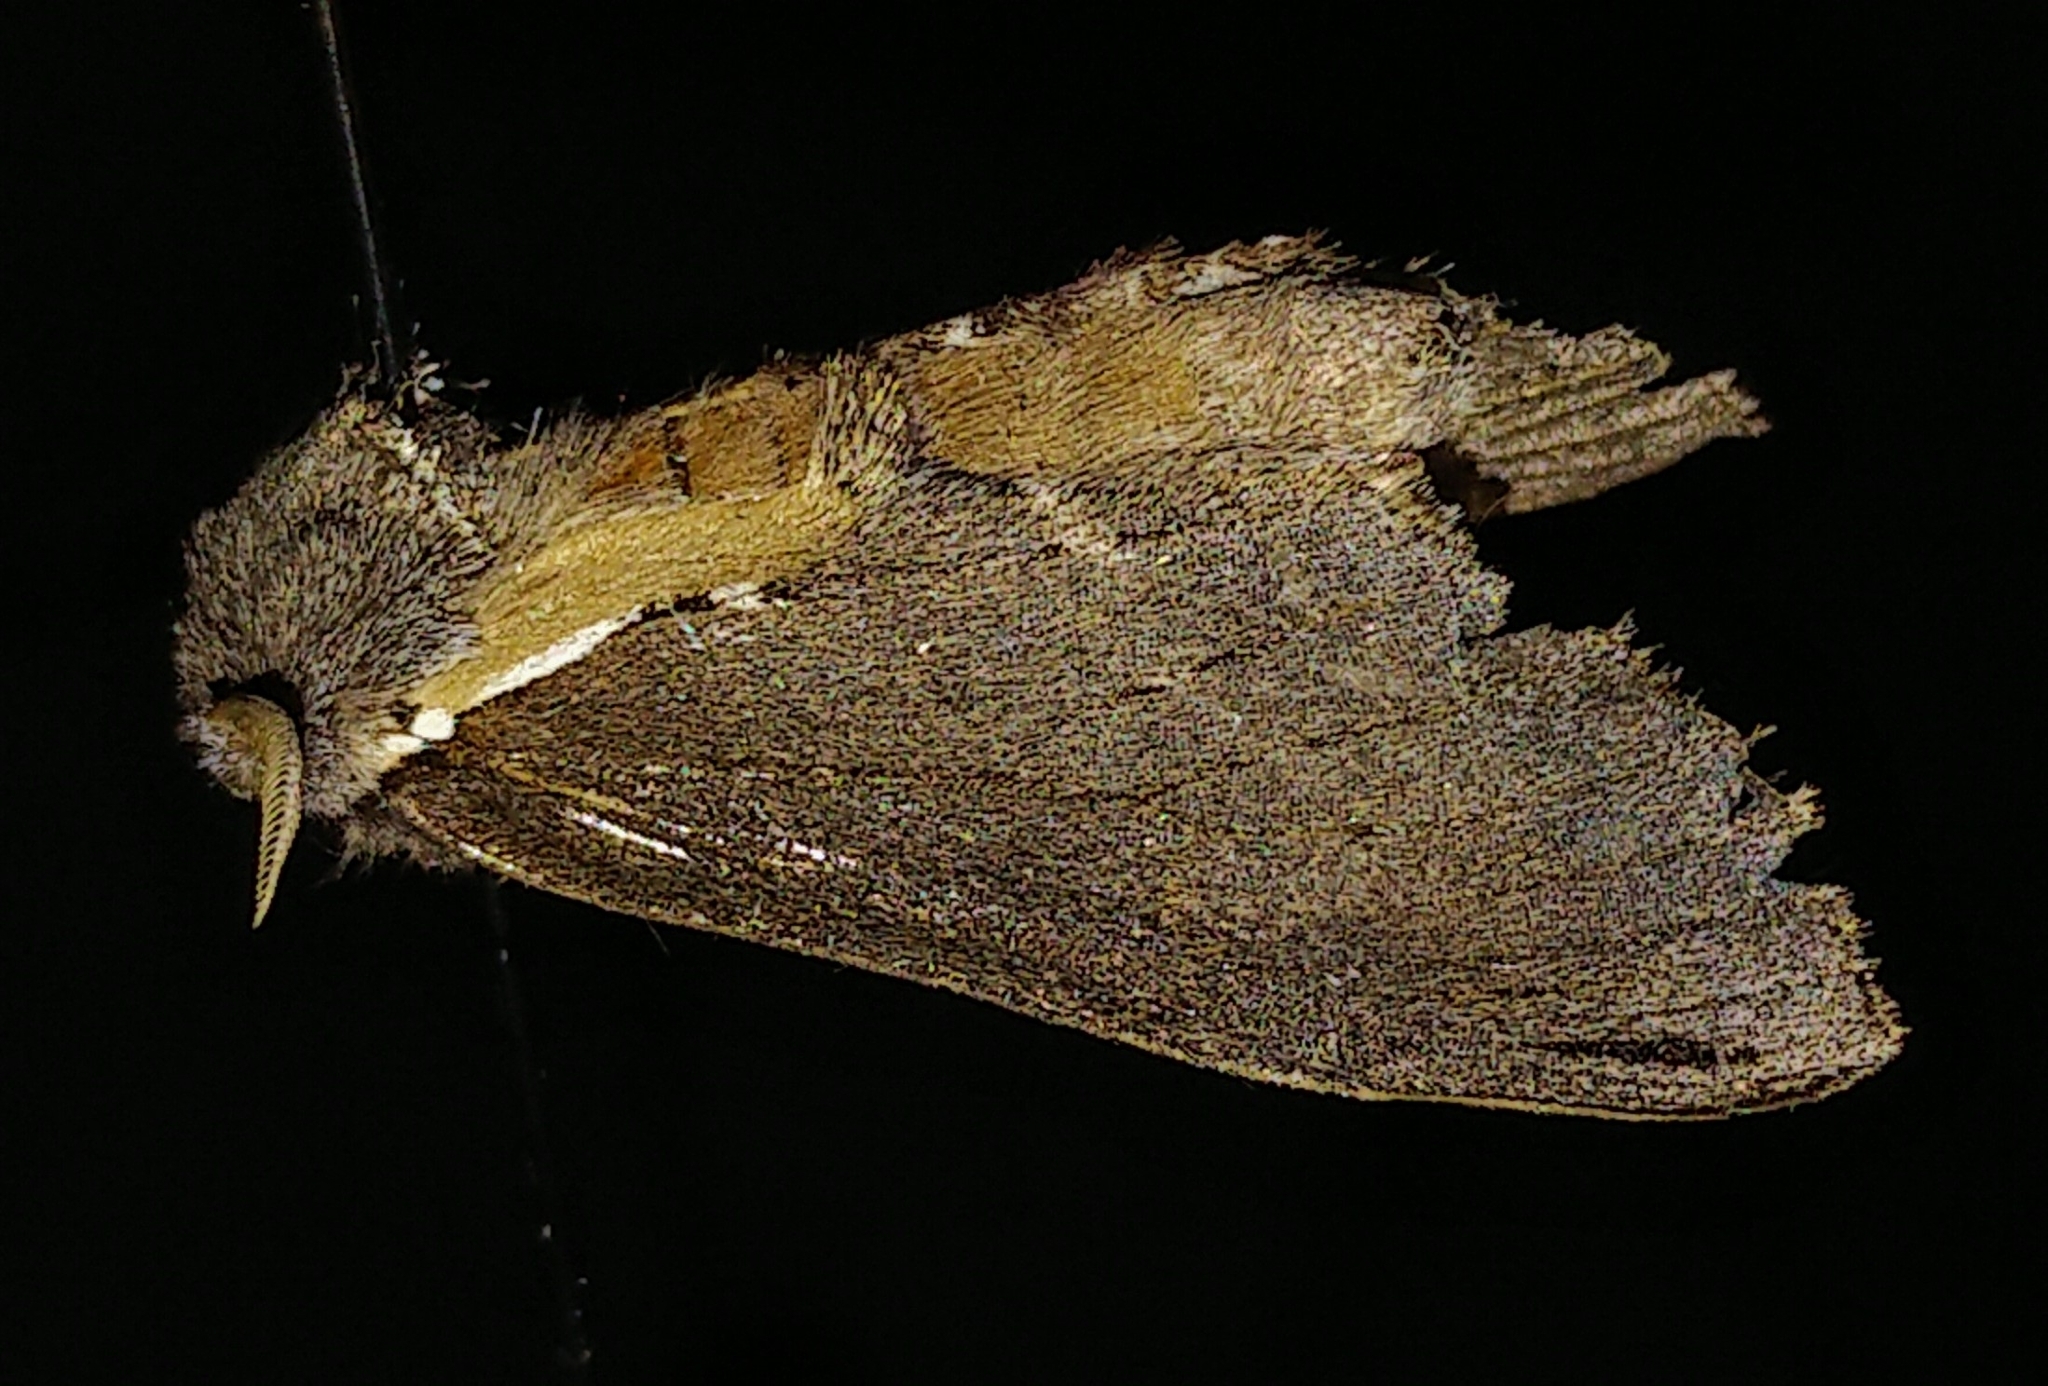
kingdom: Animalia
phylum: Arthropoda
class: Insecta
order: Lepidoptera
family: Notodontidae
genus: Pheosidea
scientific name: Pheosidea elegans
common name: Elegant prominent
